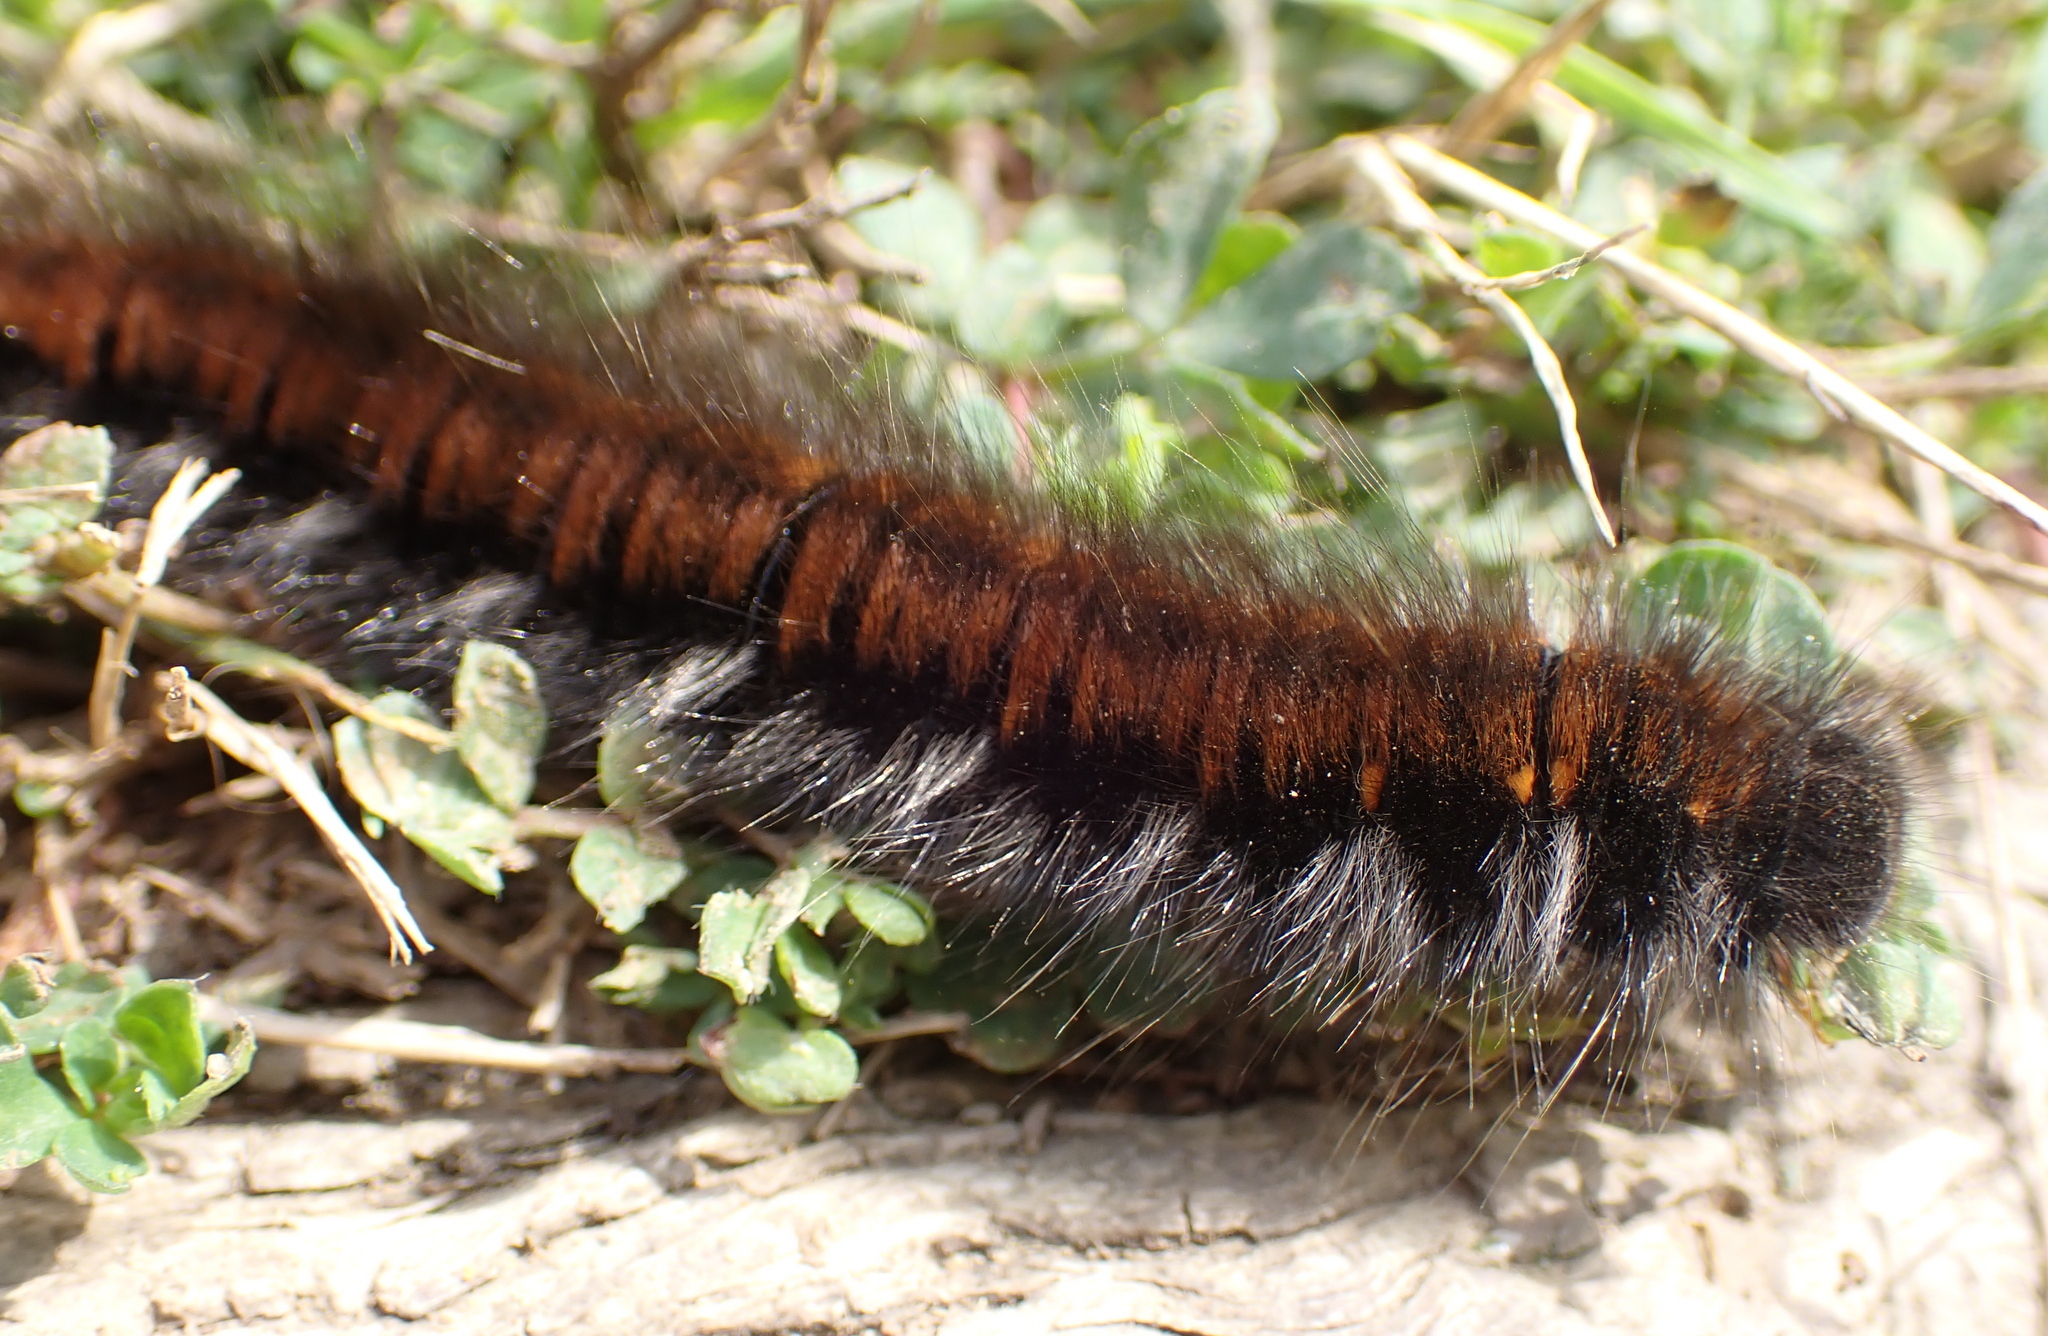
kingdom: Animalia
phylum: Arthropoda
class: Insecta
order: Lepidoptera
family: Lasiocampidae
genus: Macrothylacia
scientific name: Macrothylacia rubi
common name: Fox moth
